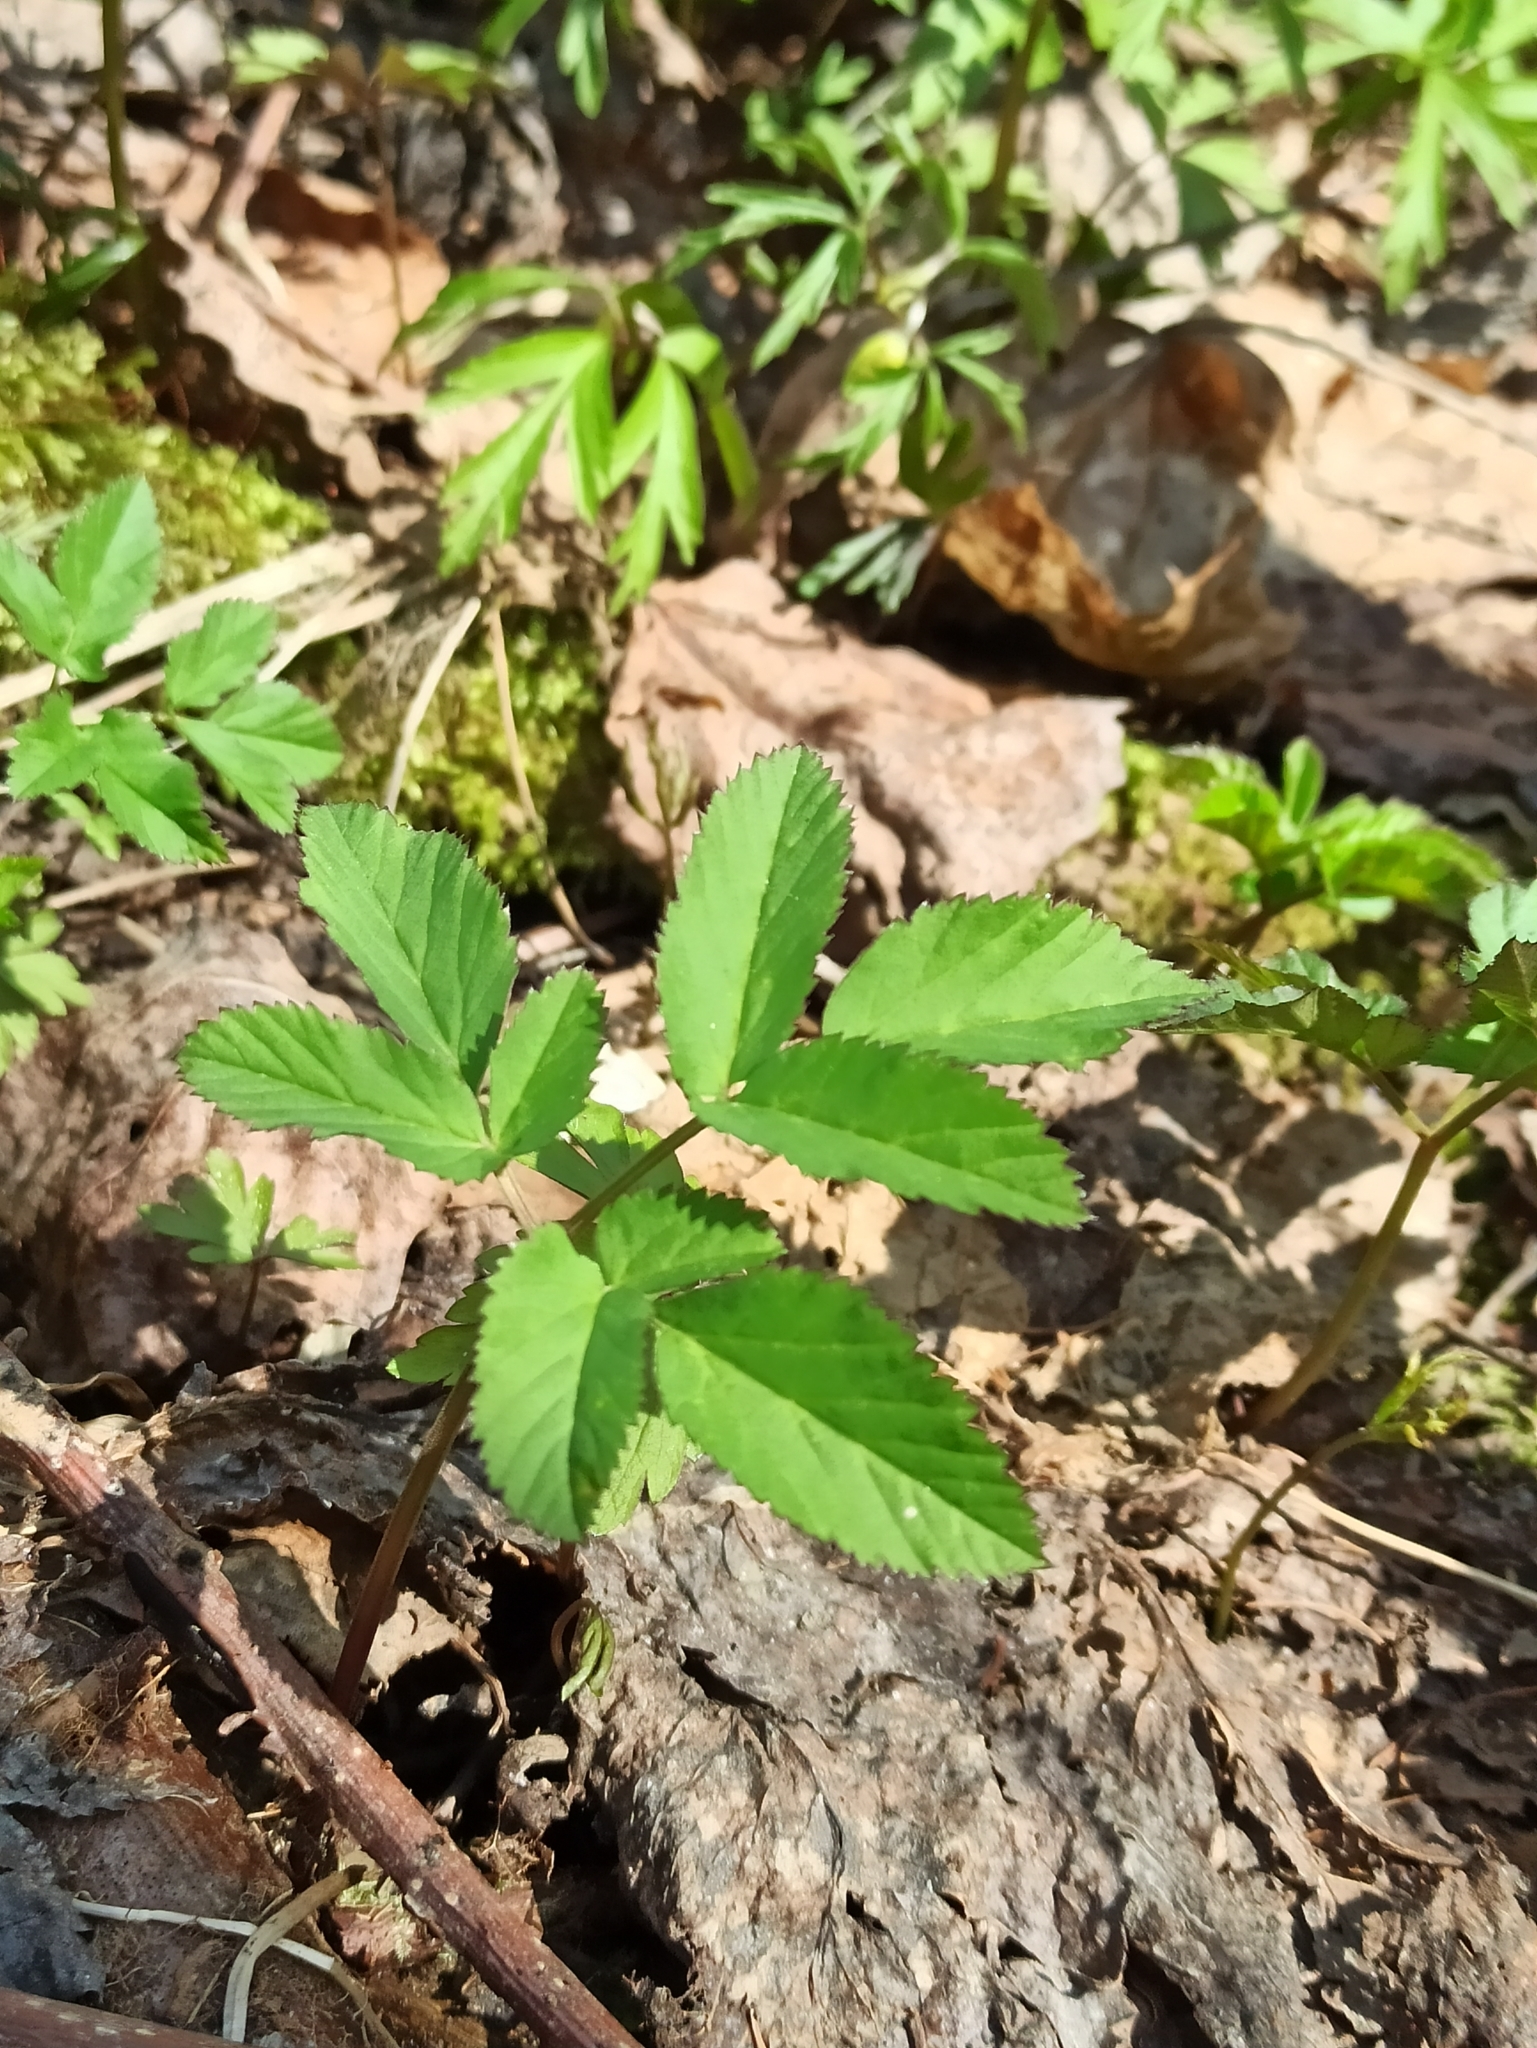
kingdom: Plantae
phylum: Tracheophyta
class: Magnoliopsida
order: Apiales
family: Apiaceae
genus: Aegopodium
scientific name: Aegopodium podagraria
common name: Ground-elder
